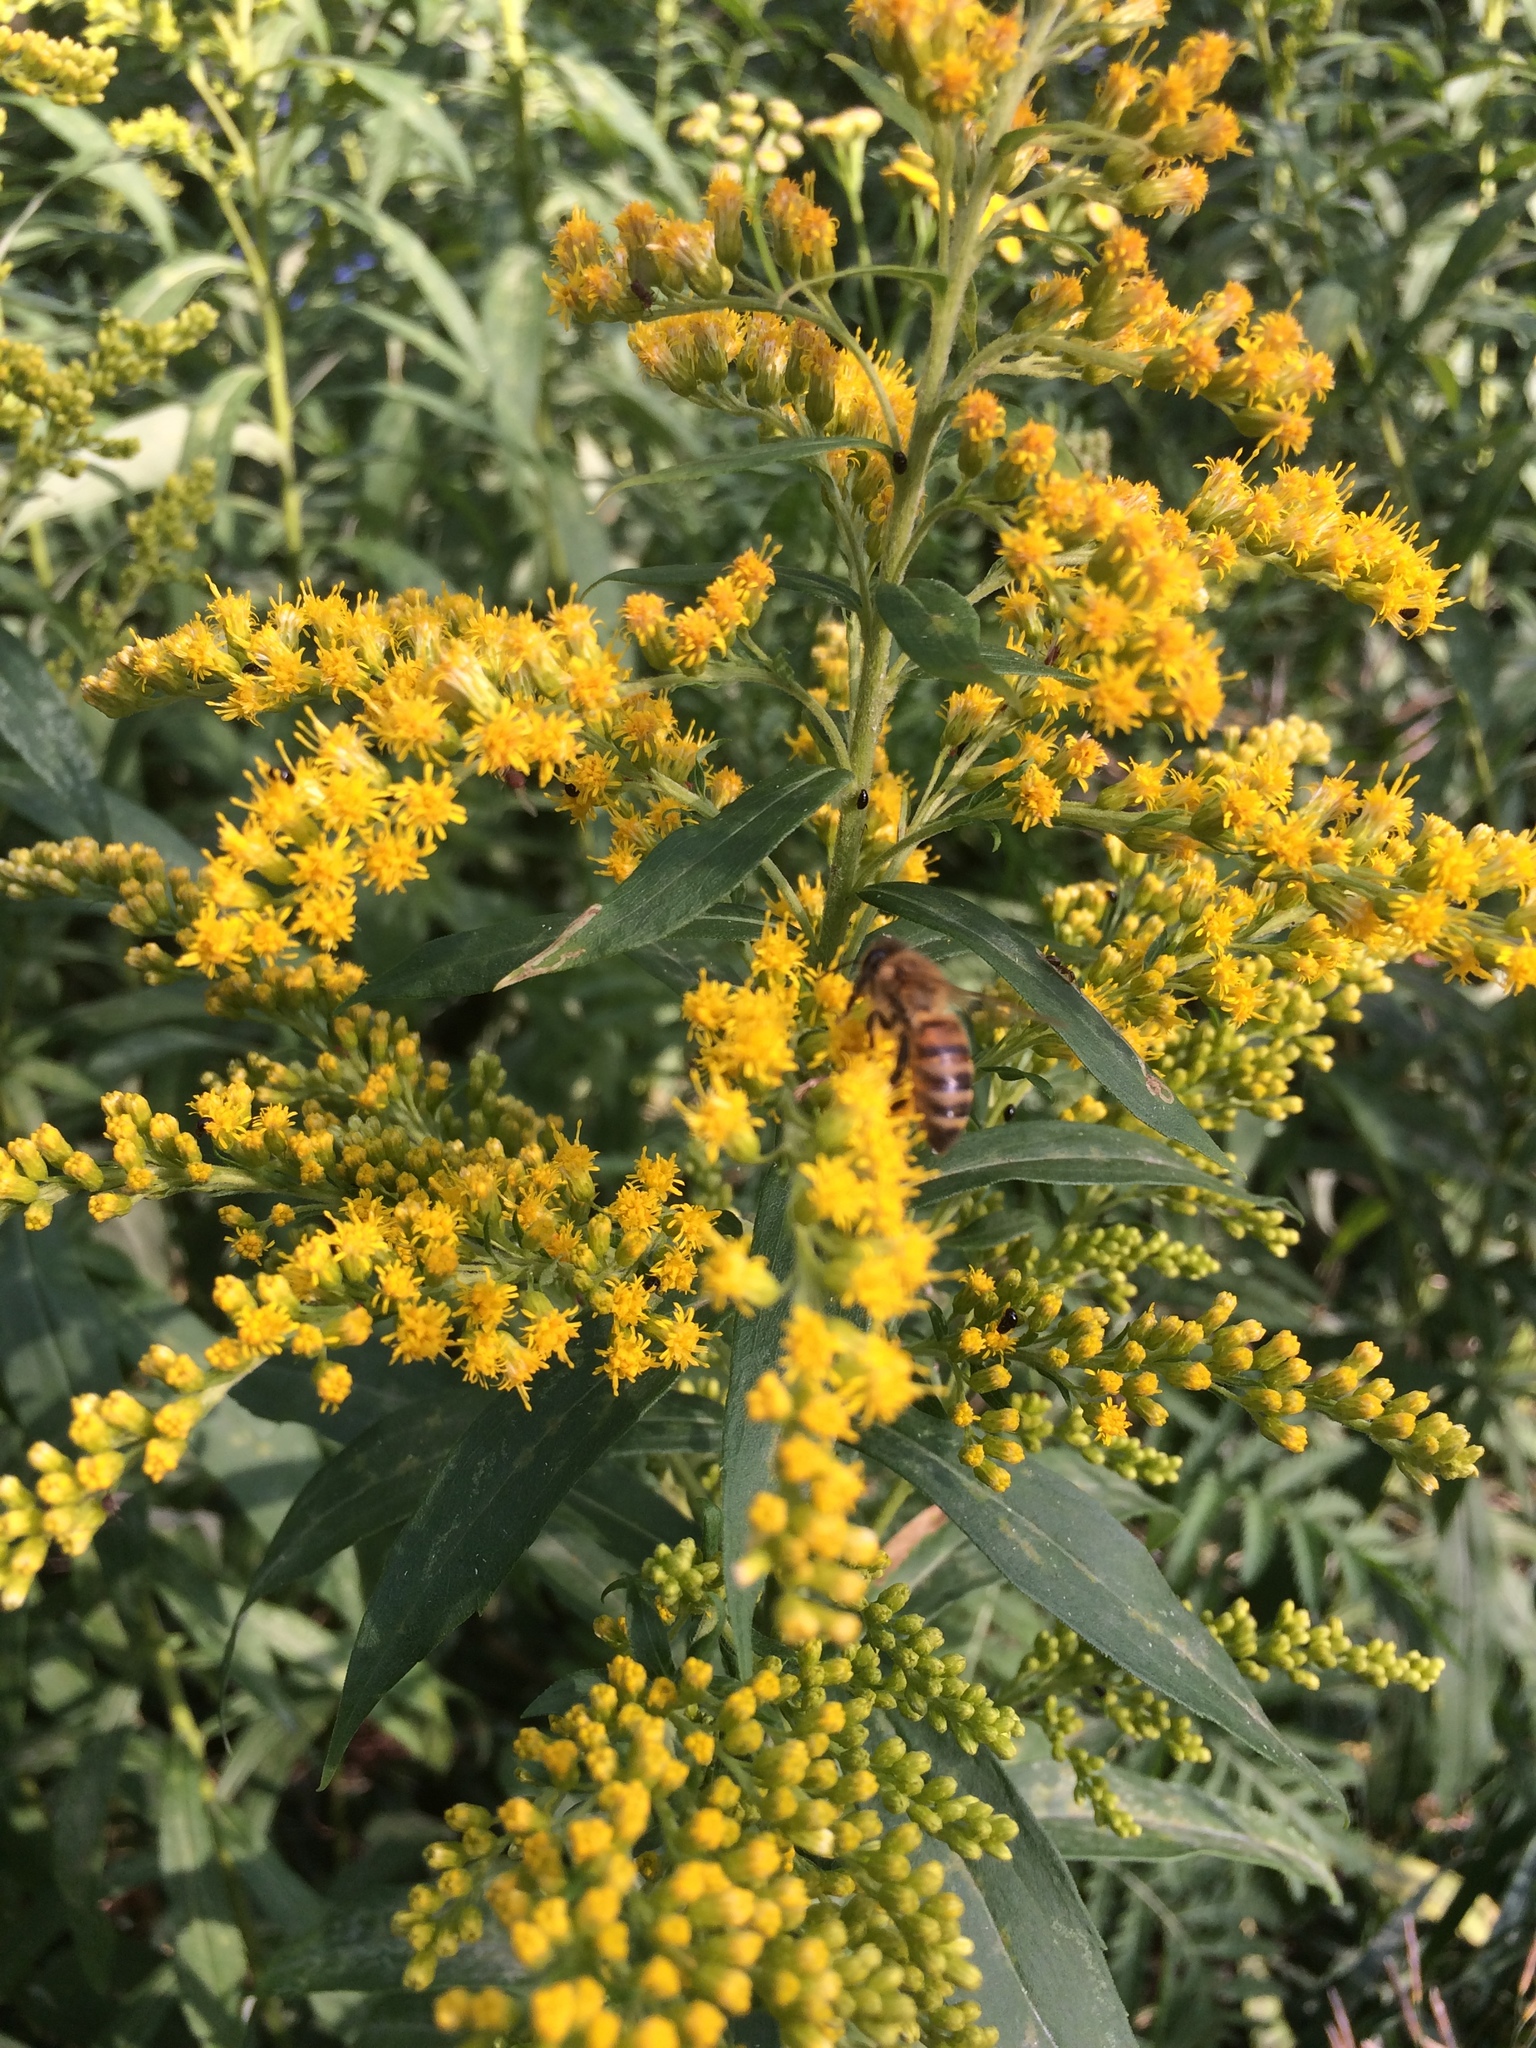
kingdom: Plantae
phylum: Tracheophyta
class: Magnoliopsida
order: Asterales
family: Asteraceae
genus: Solidago
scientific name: Solidago altissima
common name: Late goldenrod
